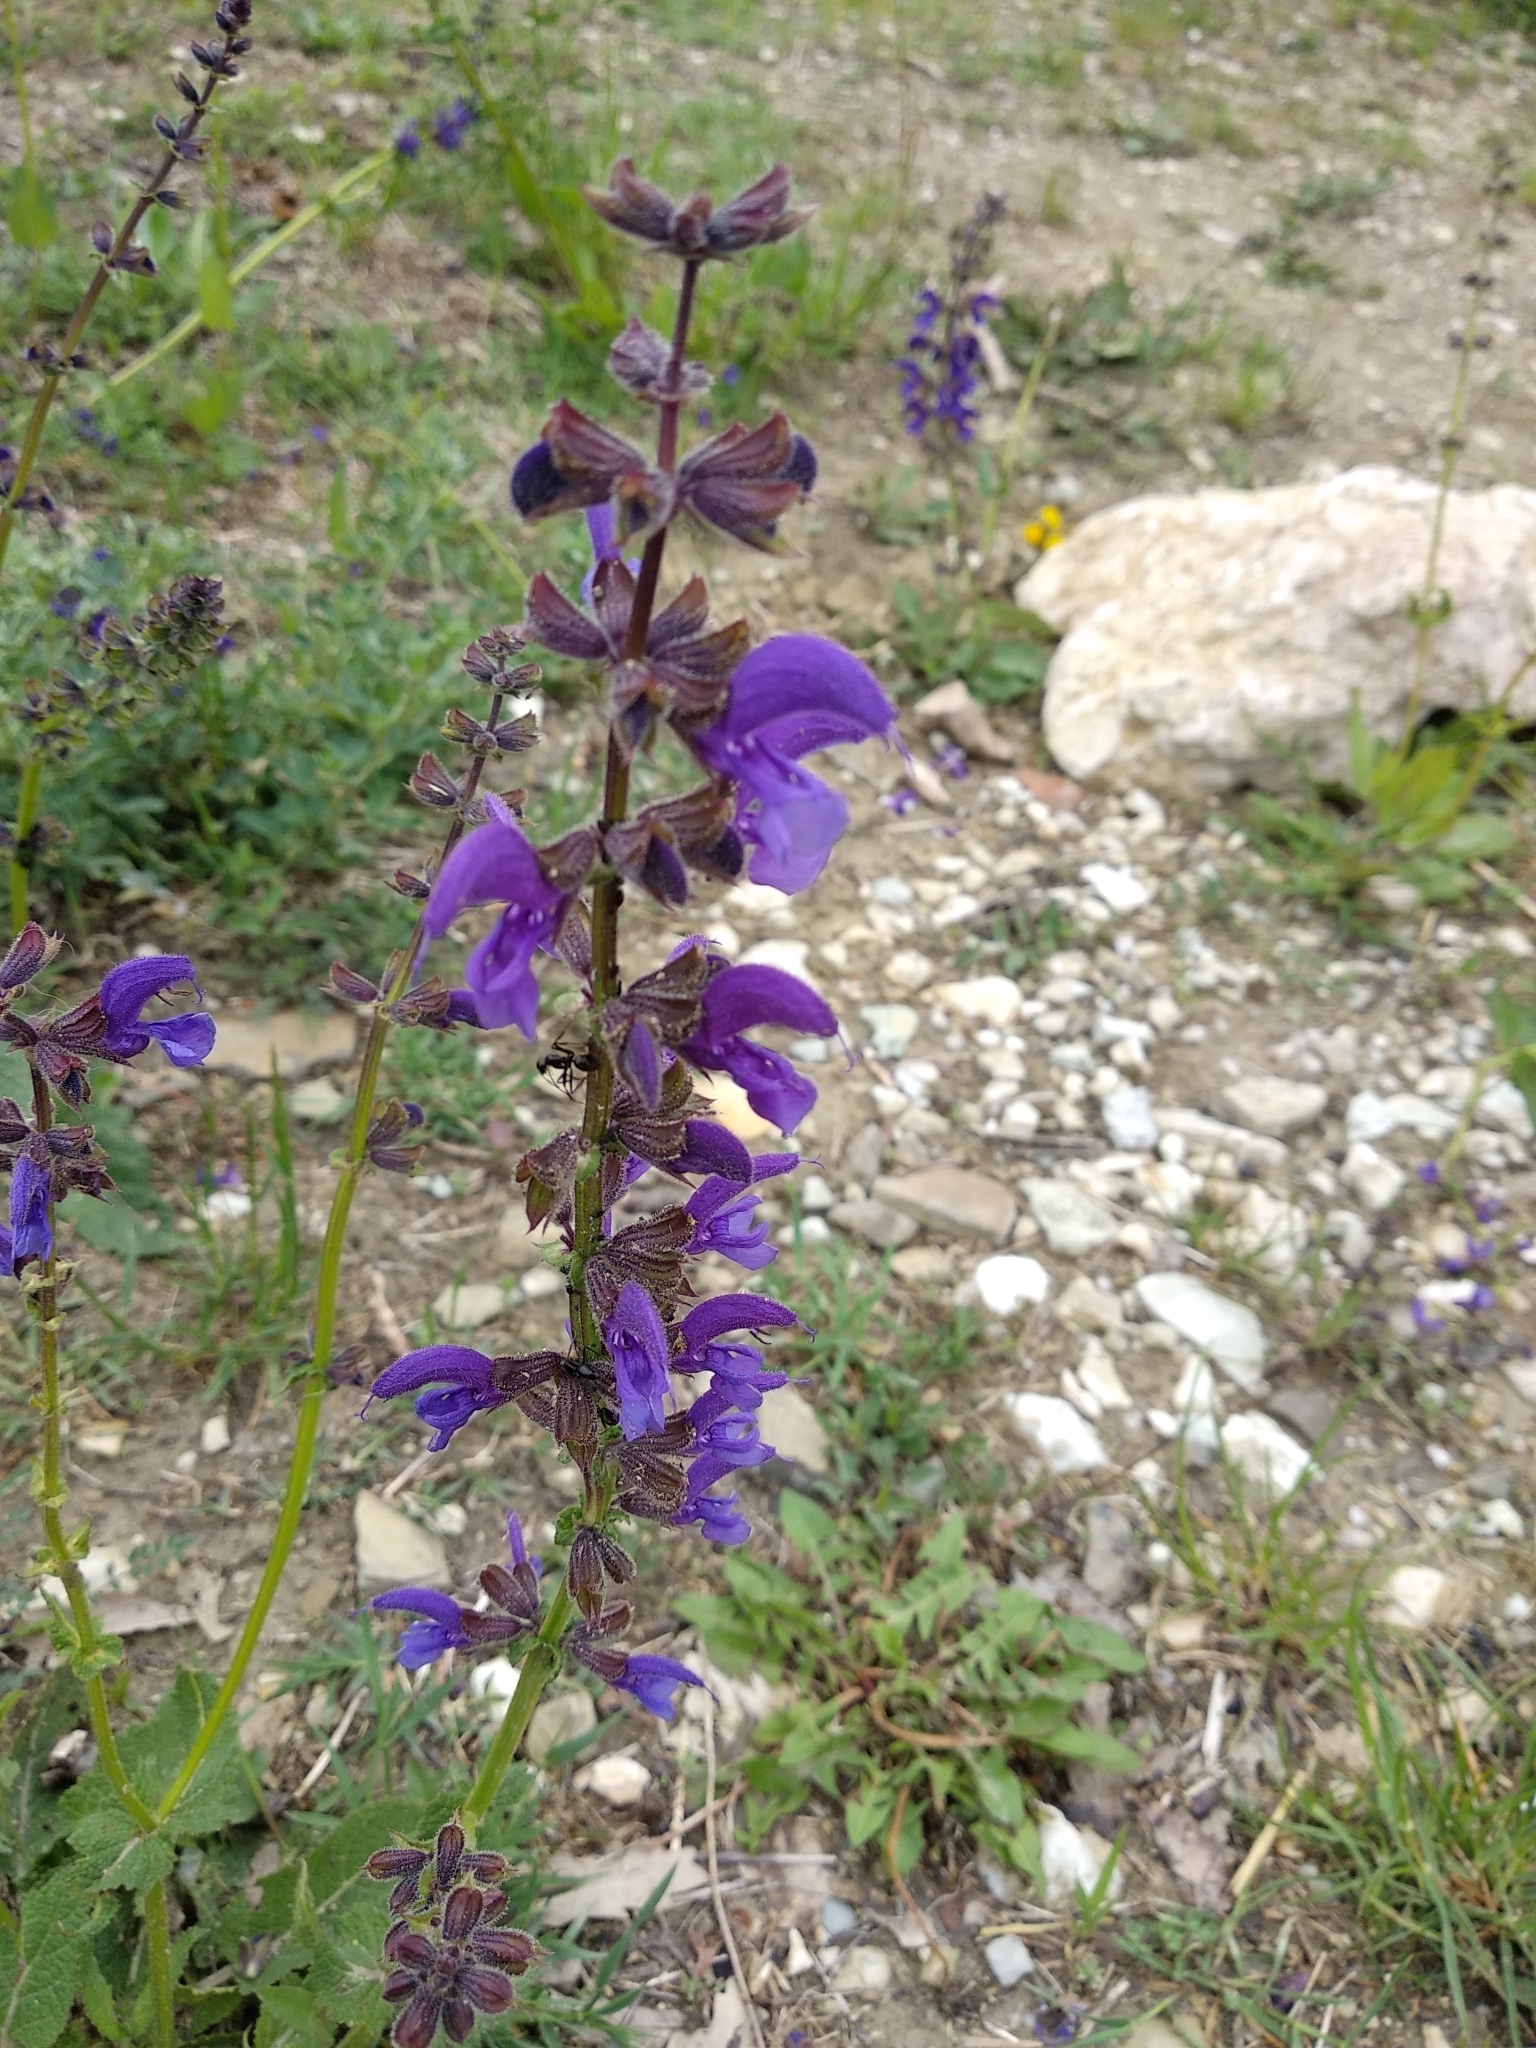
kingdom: Plantae
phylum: Tracheophyta
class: Magnoliopsida
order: Lamiales
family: Lamiaceae
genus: Salvia
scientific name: Salvia pratensis
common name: Meadow sage
